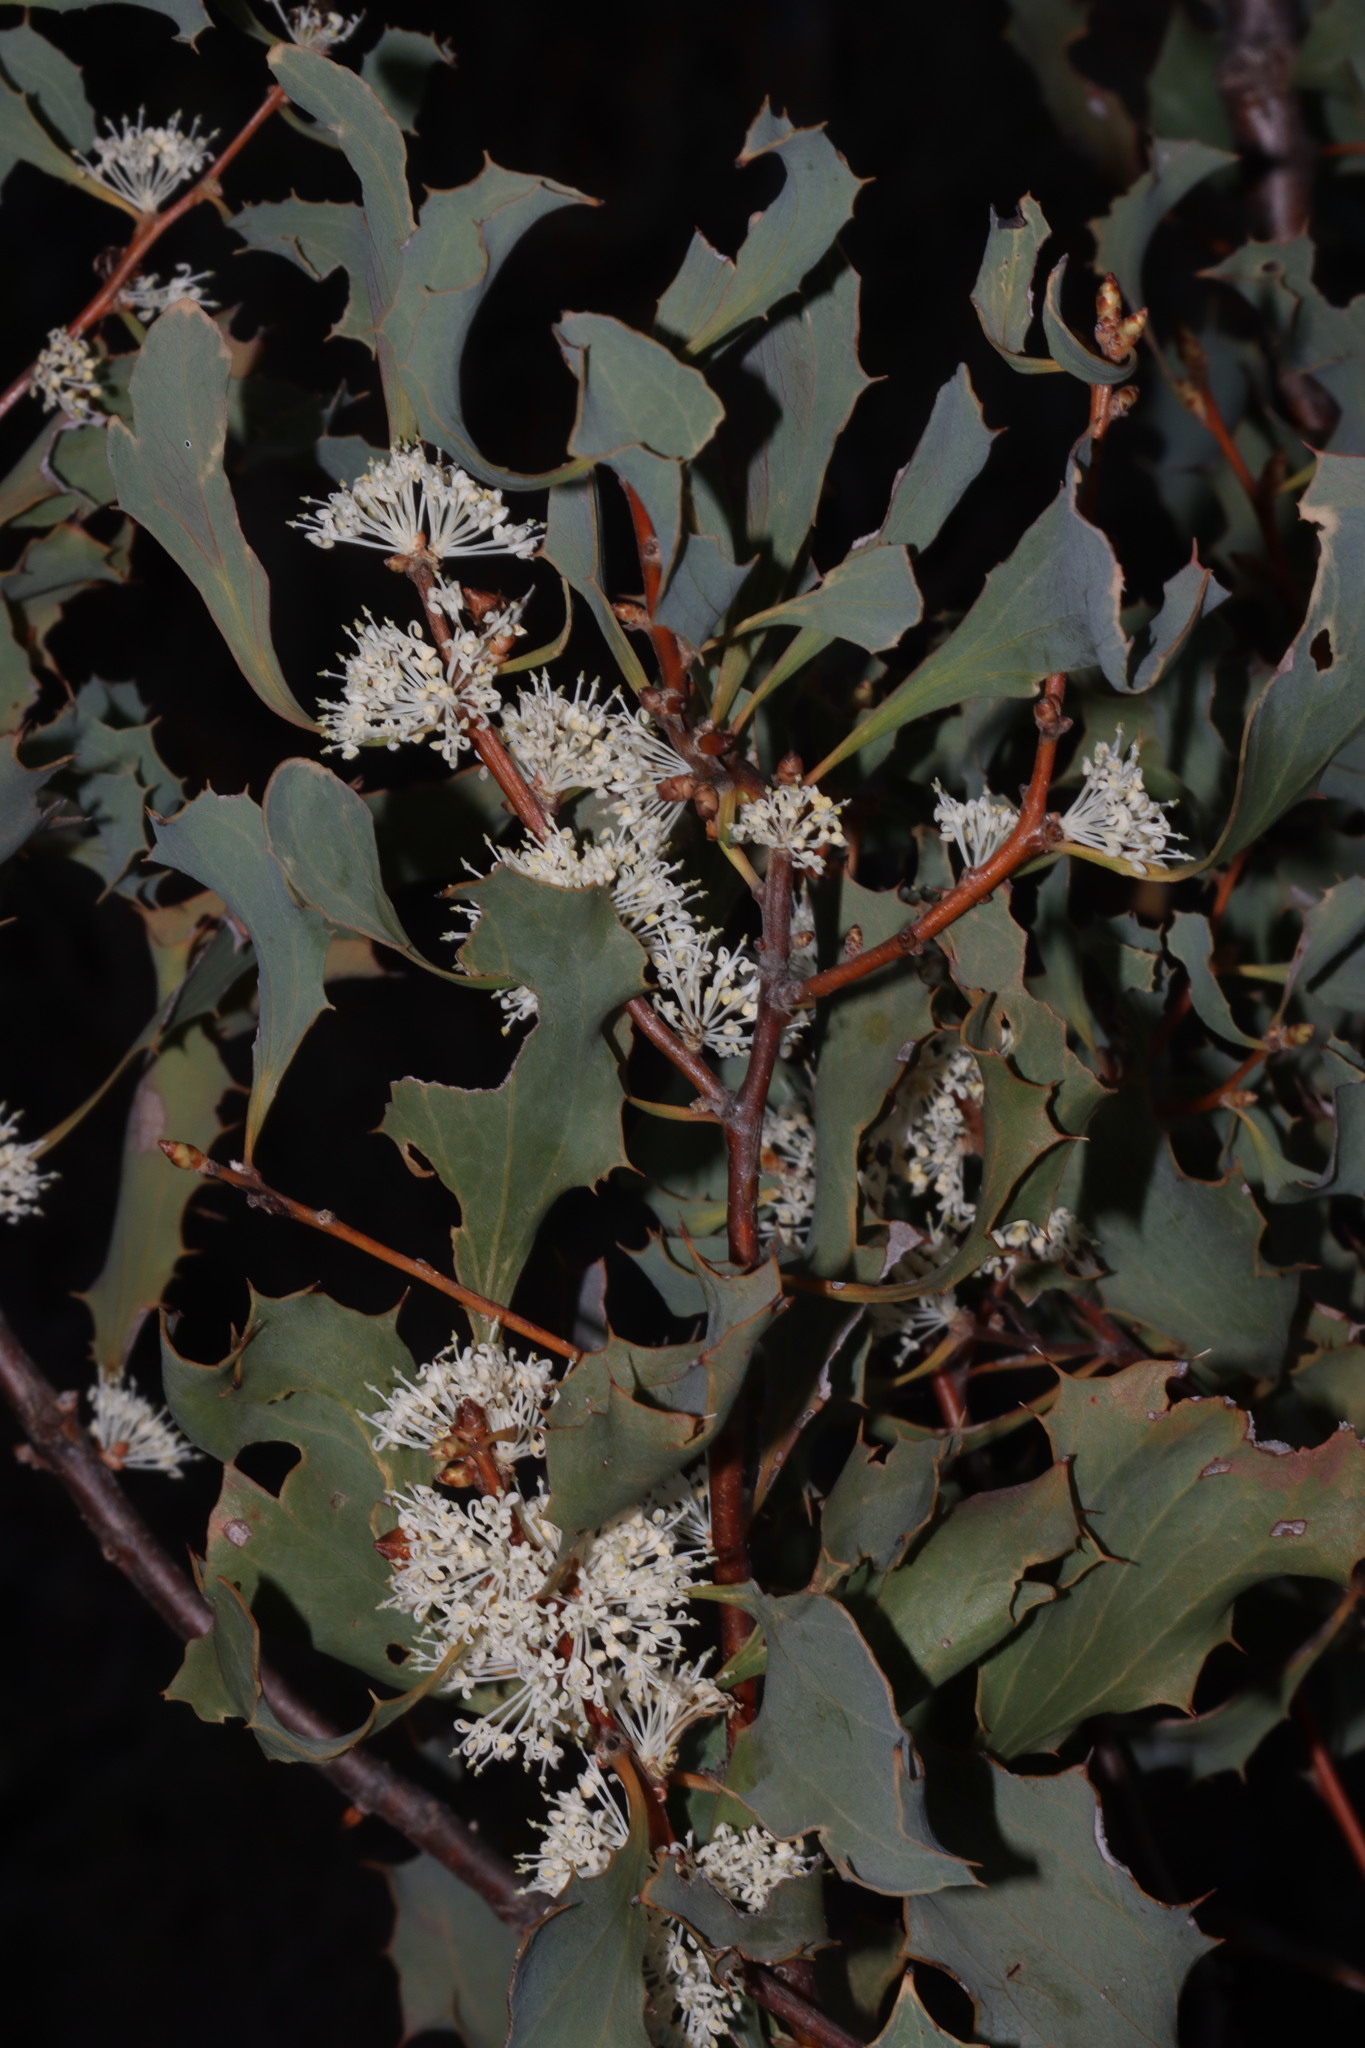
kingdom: Plantae
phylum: Tracheophyta
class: Magnoliopsida
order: Proteales
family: Proteaceae
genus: Hakea
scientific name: Hakea undulata
